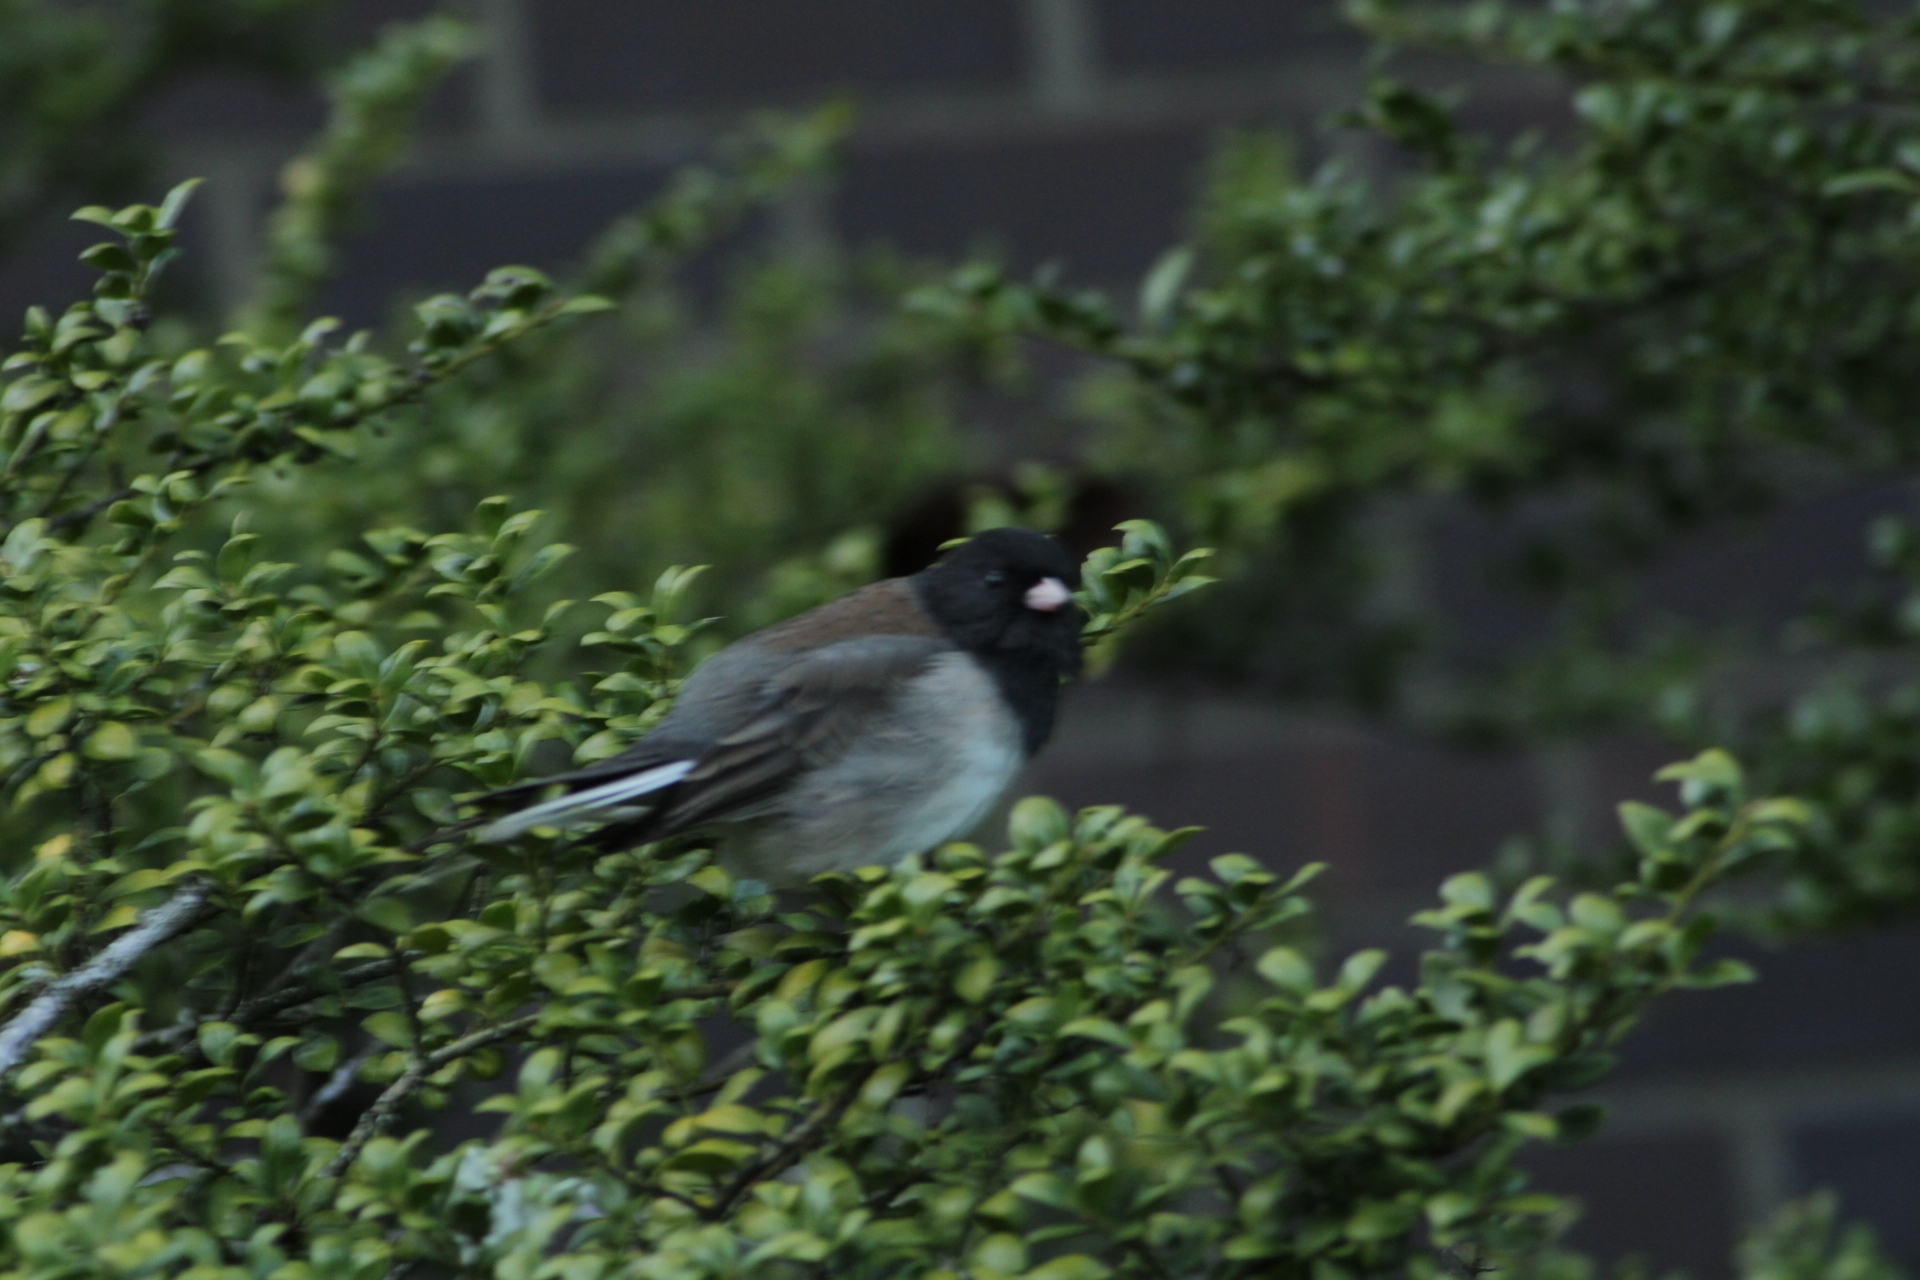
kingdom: Animalia
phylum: Chordata
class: Aves
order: Passeriformes
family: Passerellidae
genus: Junco
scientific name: Junco hyemalis
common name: Dark-eyed junco
